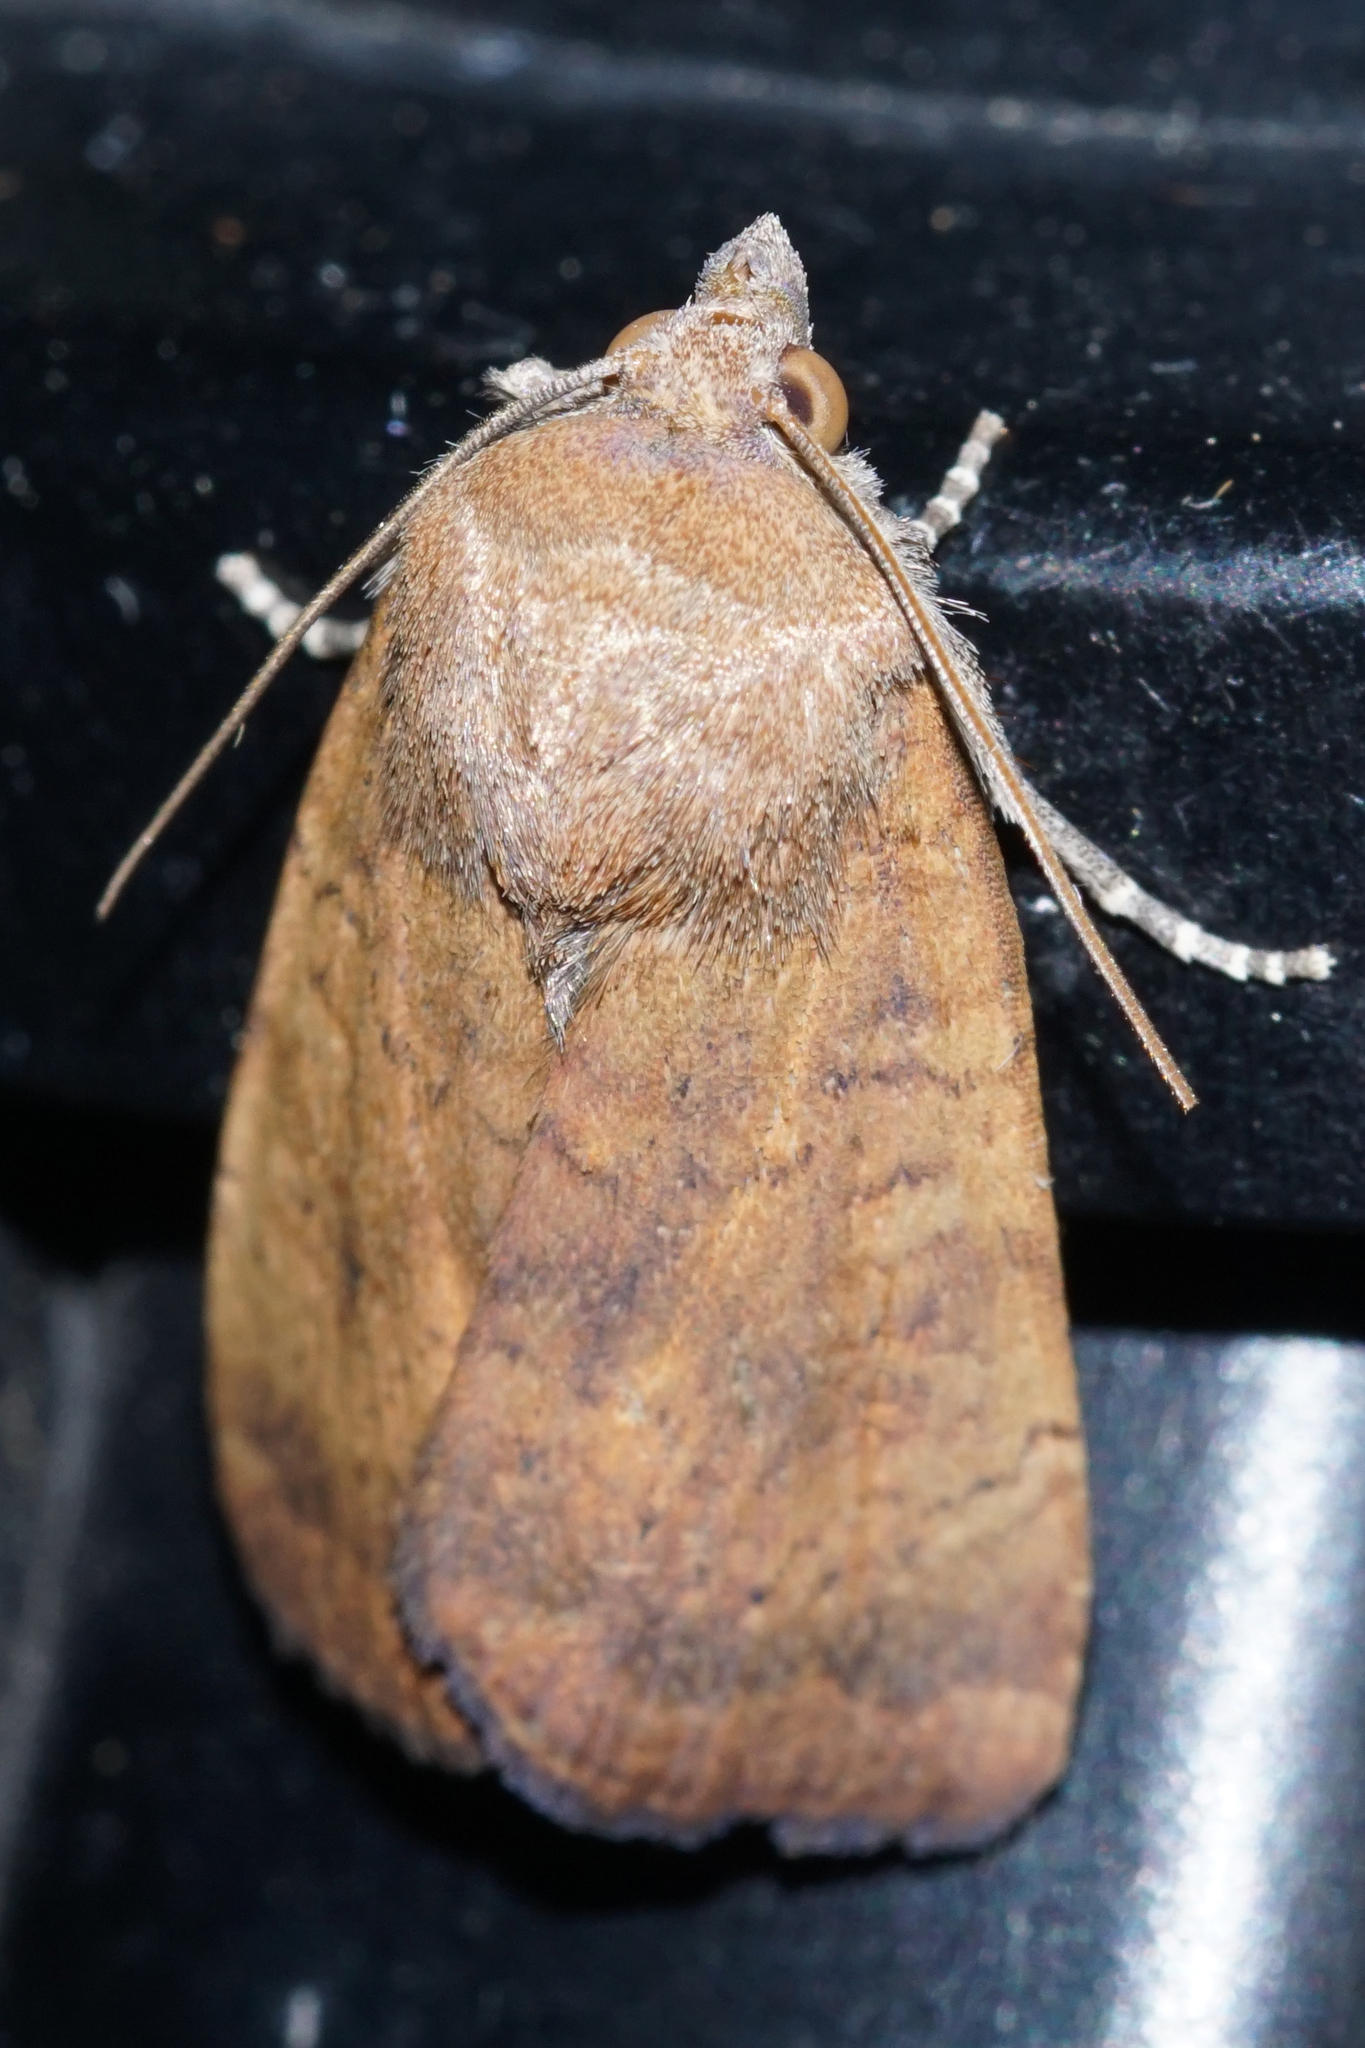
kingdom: Animalia
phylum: Arthropoda
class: Insecta
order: Lepidoptera
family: Noctuidae
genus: Noctua
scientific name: Noctua interjecta
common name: Least yellow underwing
